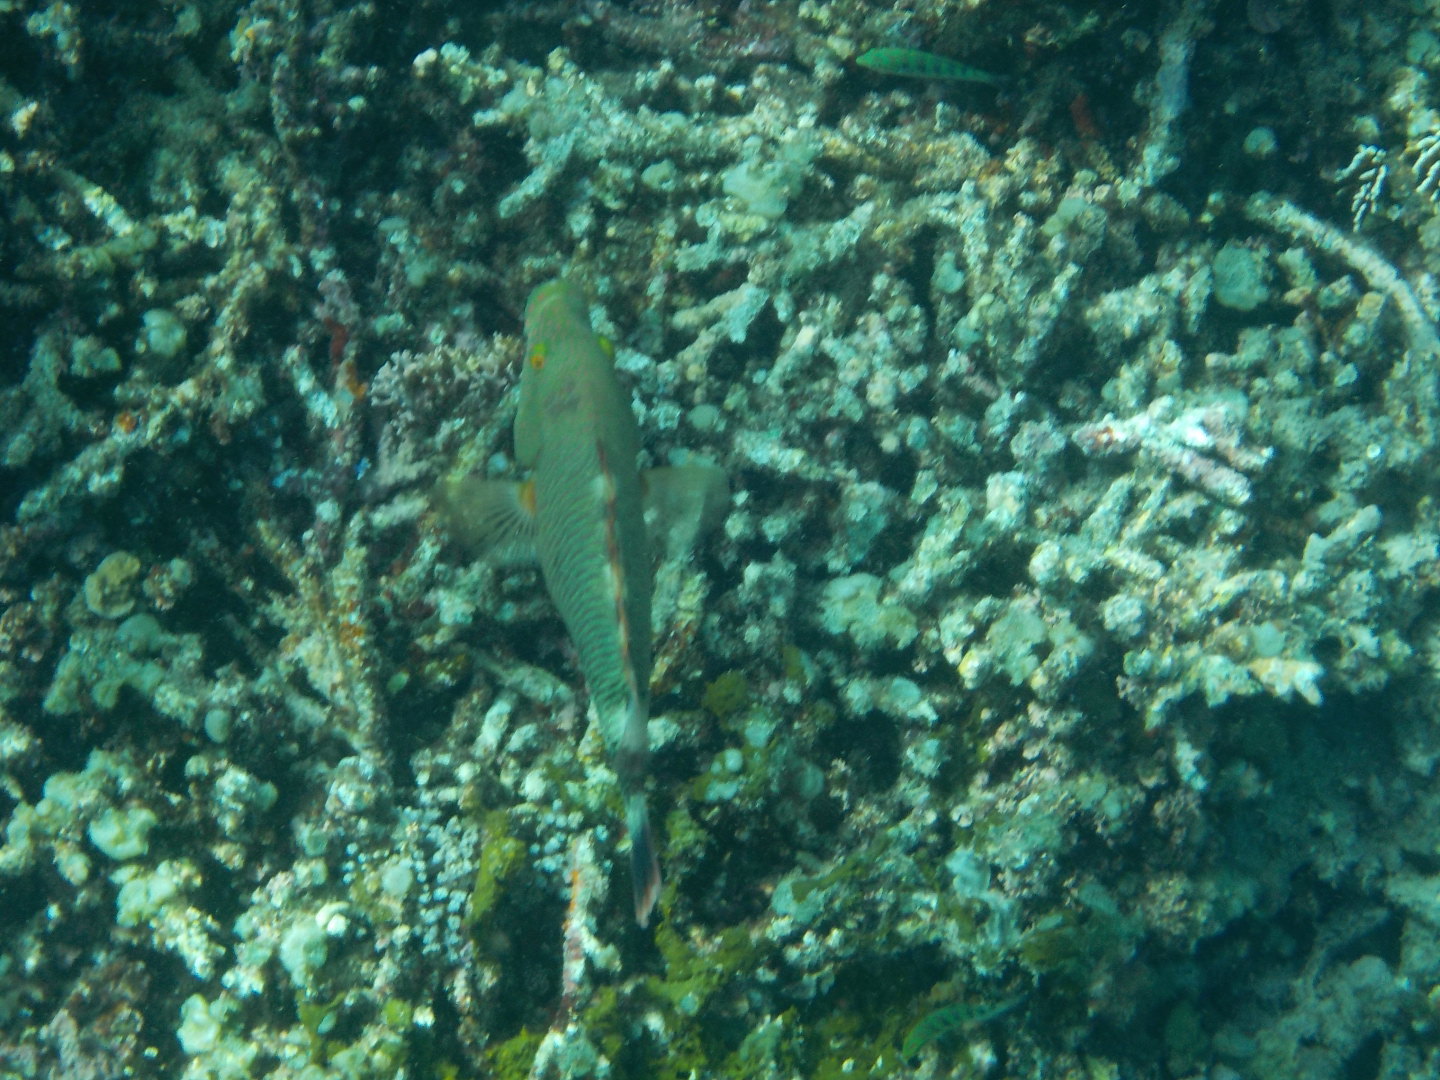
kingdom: Animalia
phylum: Chordata
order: Perciformes
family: Labridae
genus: Cheilinus
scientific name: Cheilinus trilobatus
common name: Tripletail maori wrasse
